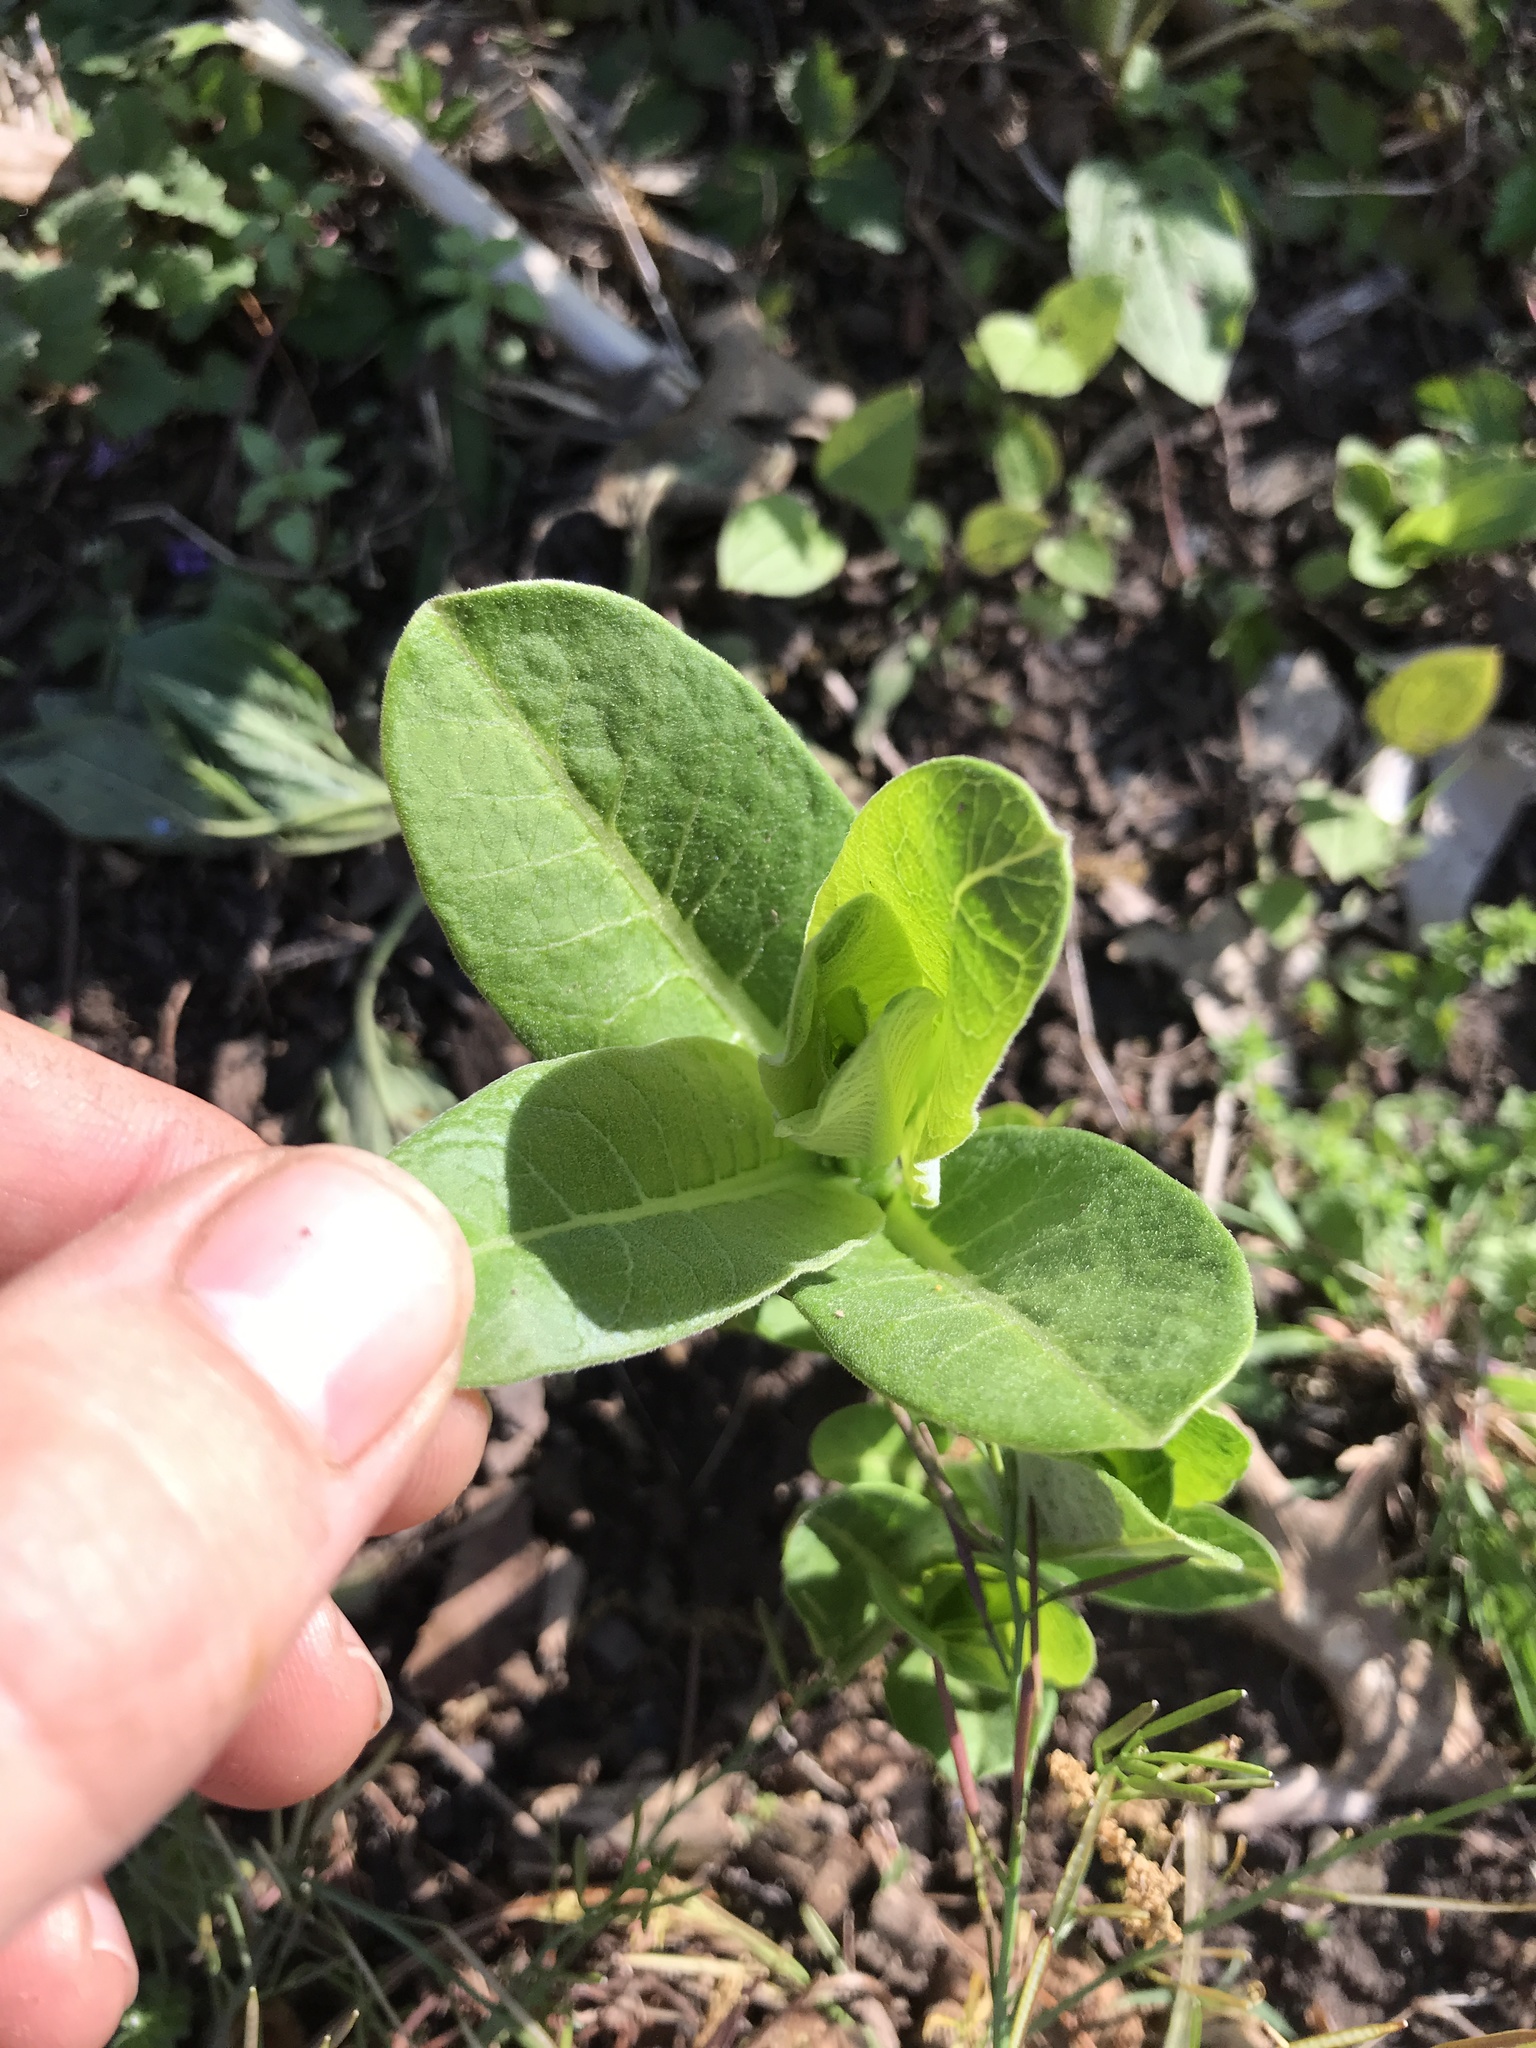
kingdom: Plantae
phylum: Tracheophyta
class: Magnoliopsida
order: Gentianales
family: Apocynaceae
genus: Asclepias
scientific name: Asclepias syriaca
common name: Common milkweed
